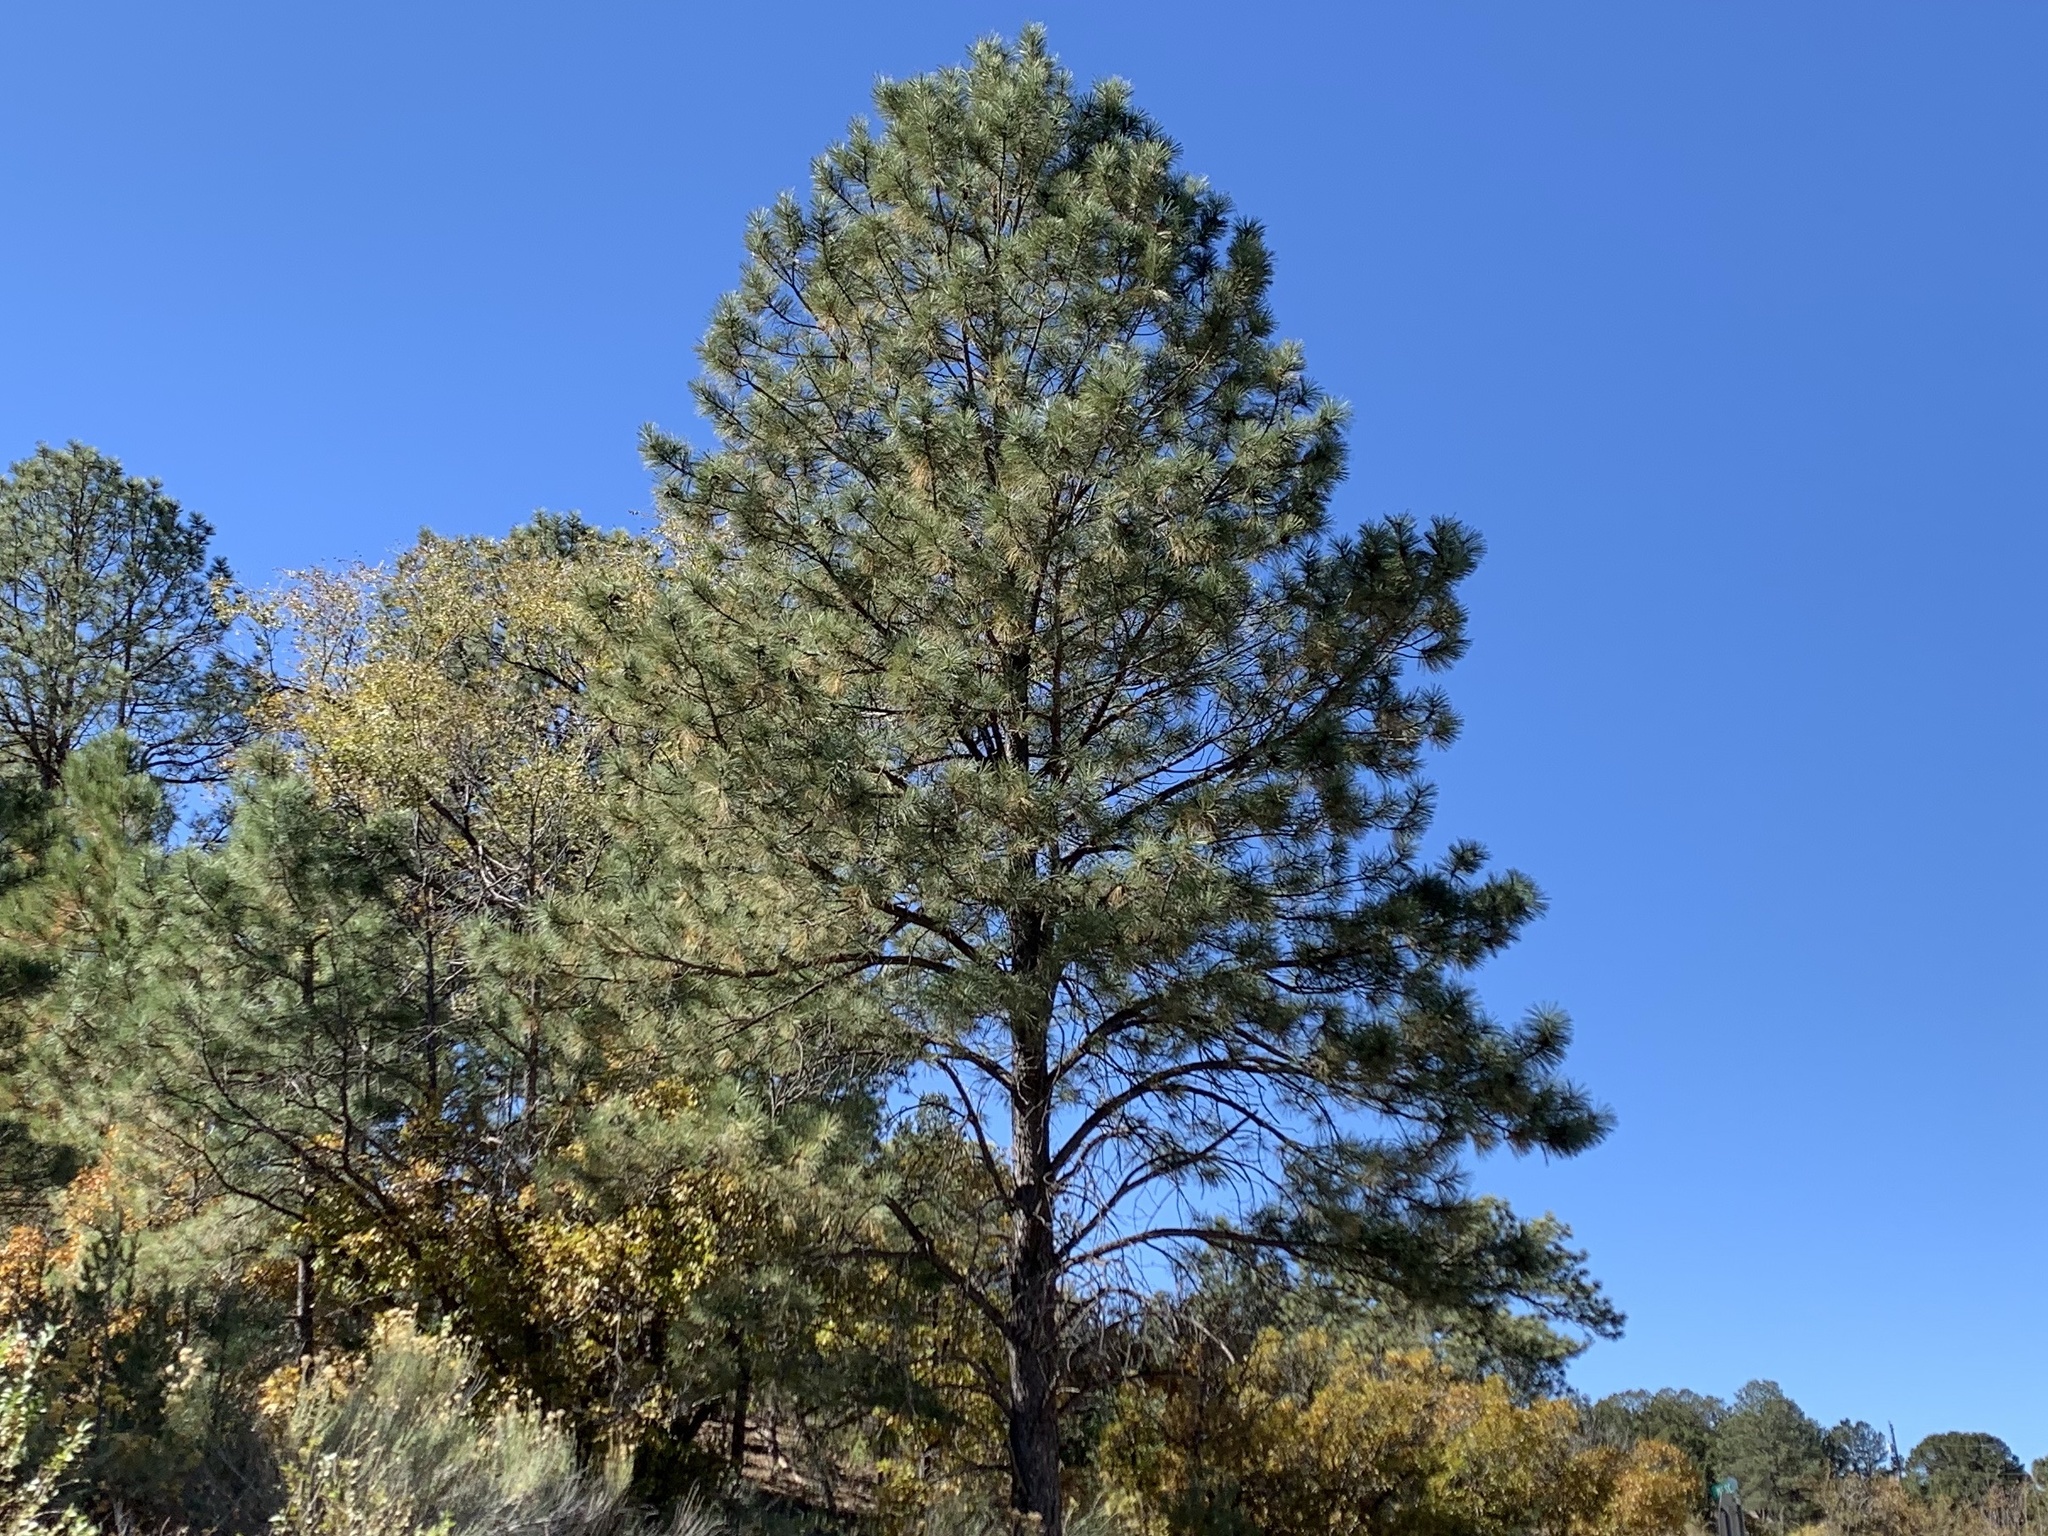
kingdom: Plantae
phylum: Tracheophyta
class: Pinopsida
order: Pinales
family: Pinaceae
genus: Pinus
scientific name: Pinus ponderosa
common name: Western yellow-pine
